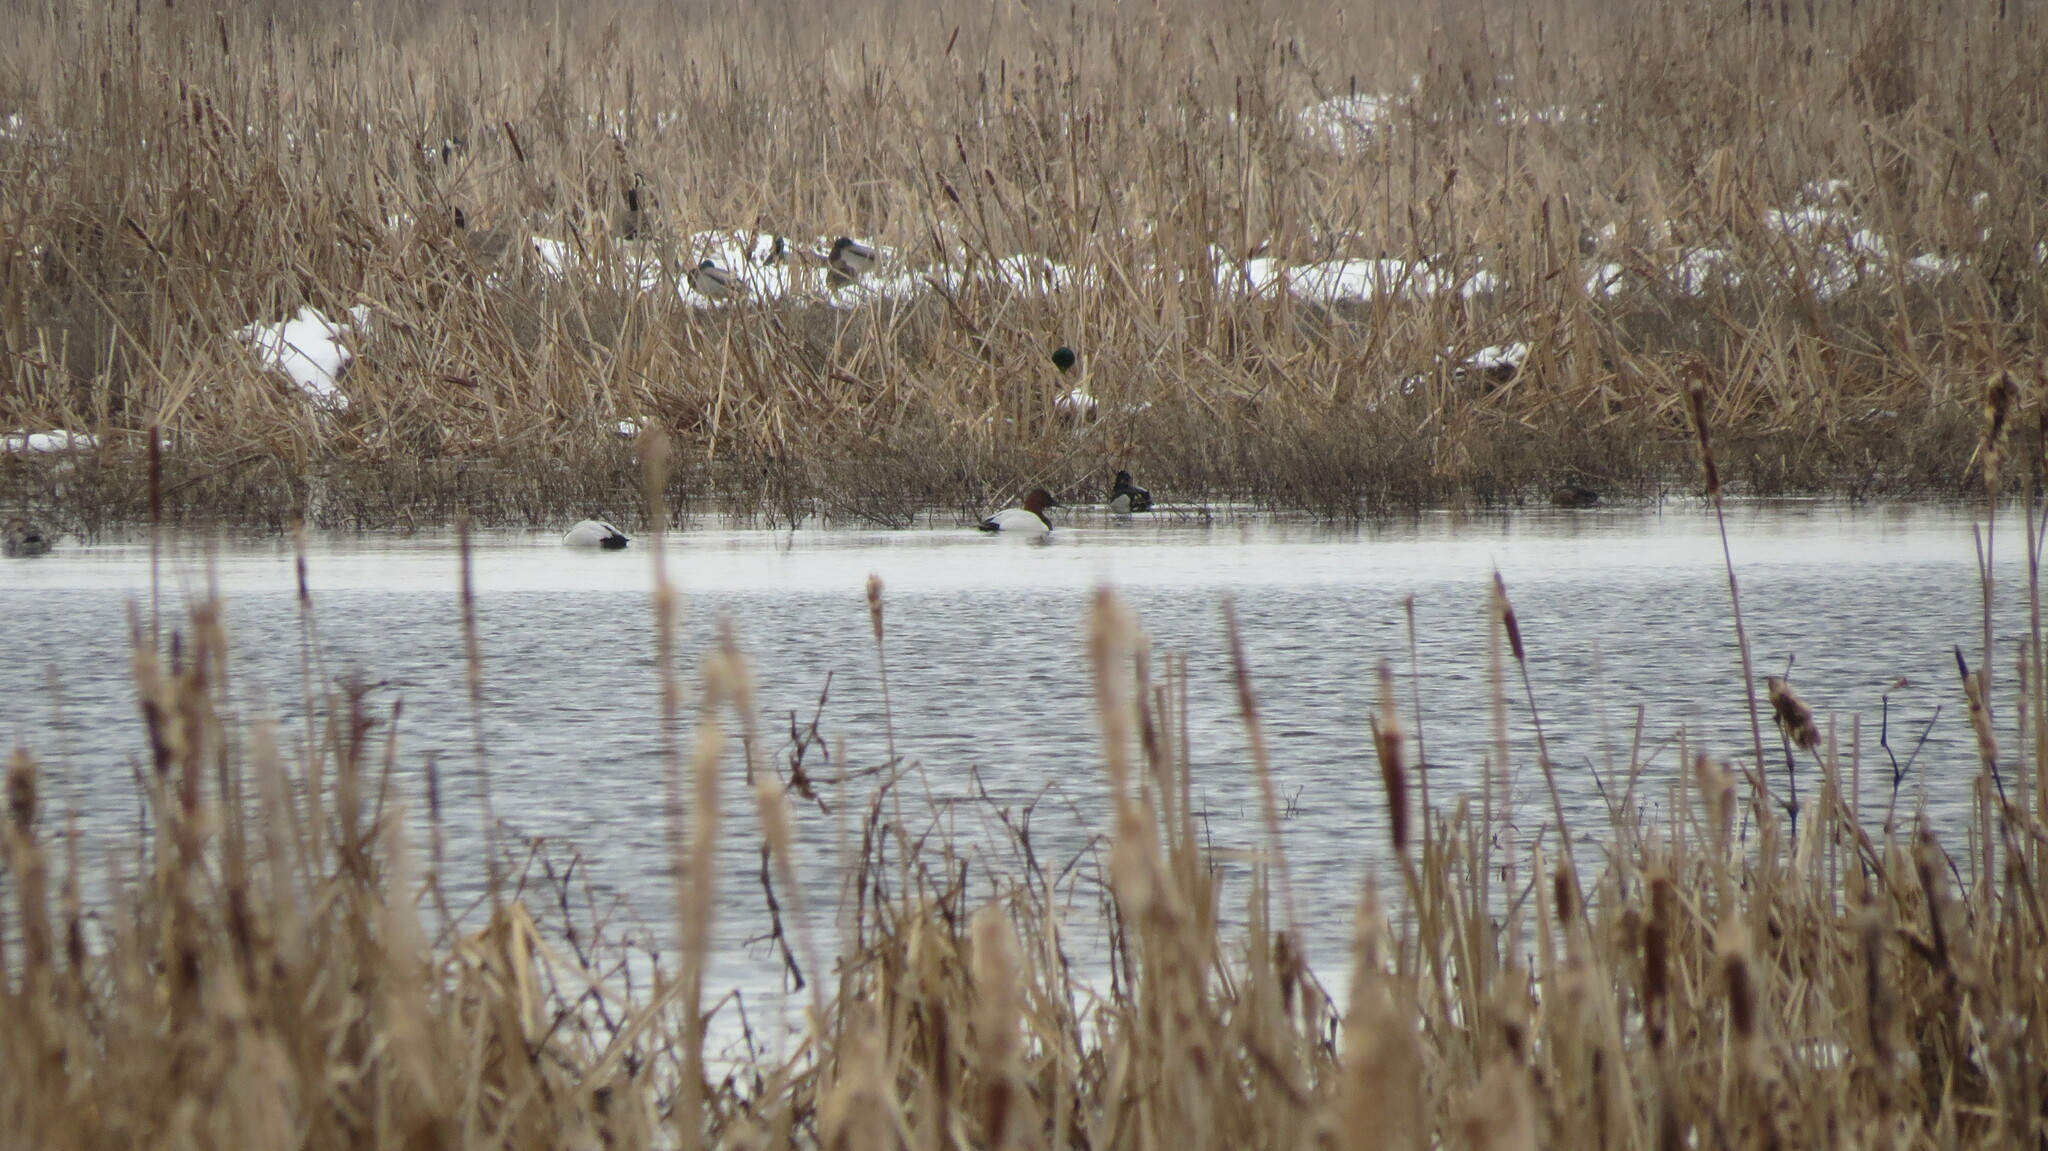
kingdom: Animalia
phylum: Chordata
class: Aves
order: Anseriformes
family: Anatidae
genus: Aythya
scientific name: Aythya valisineria
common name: Canvasback
